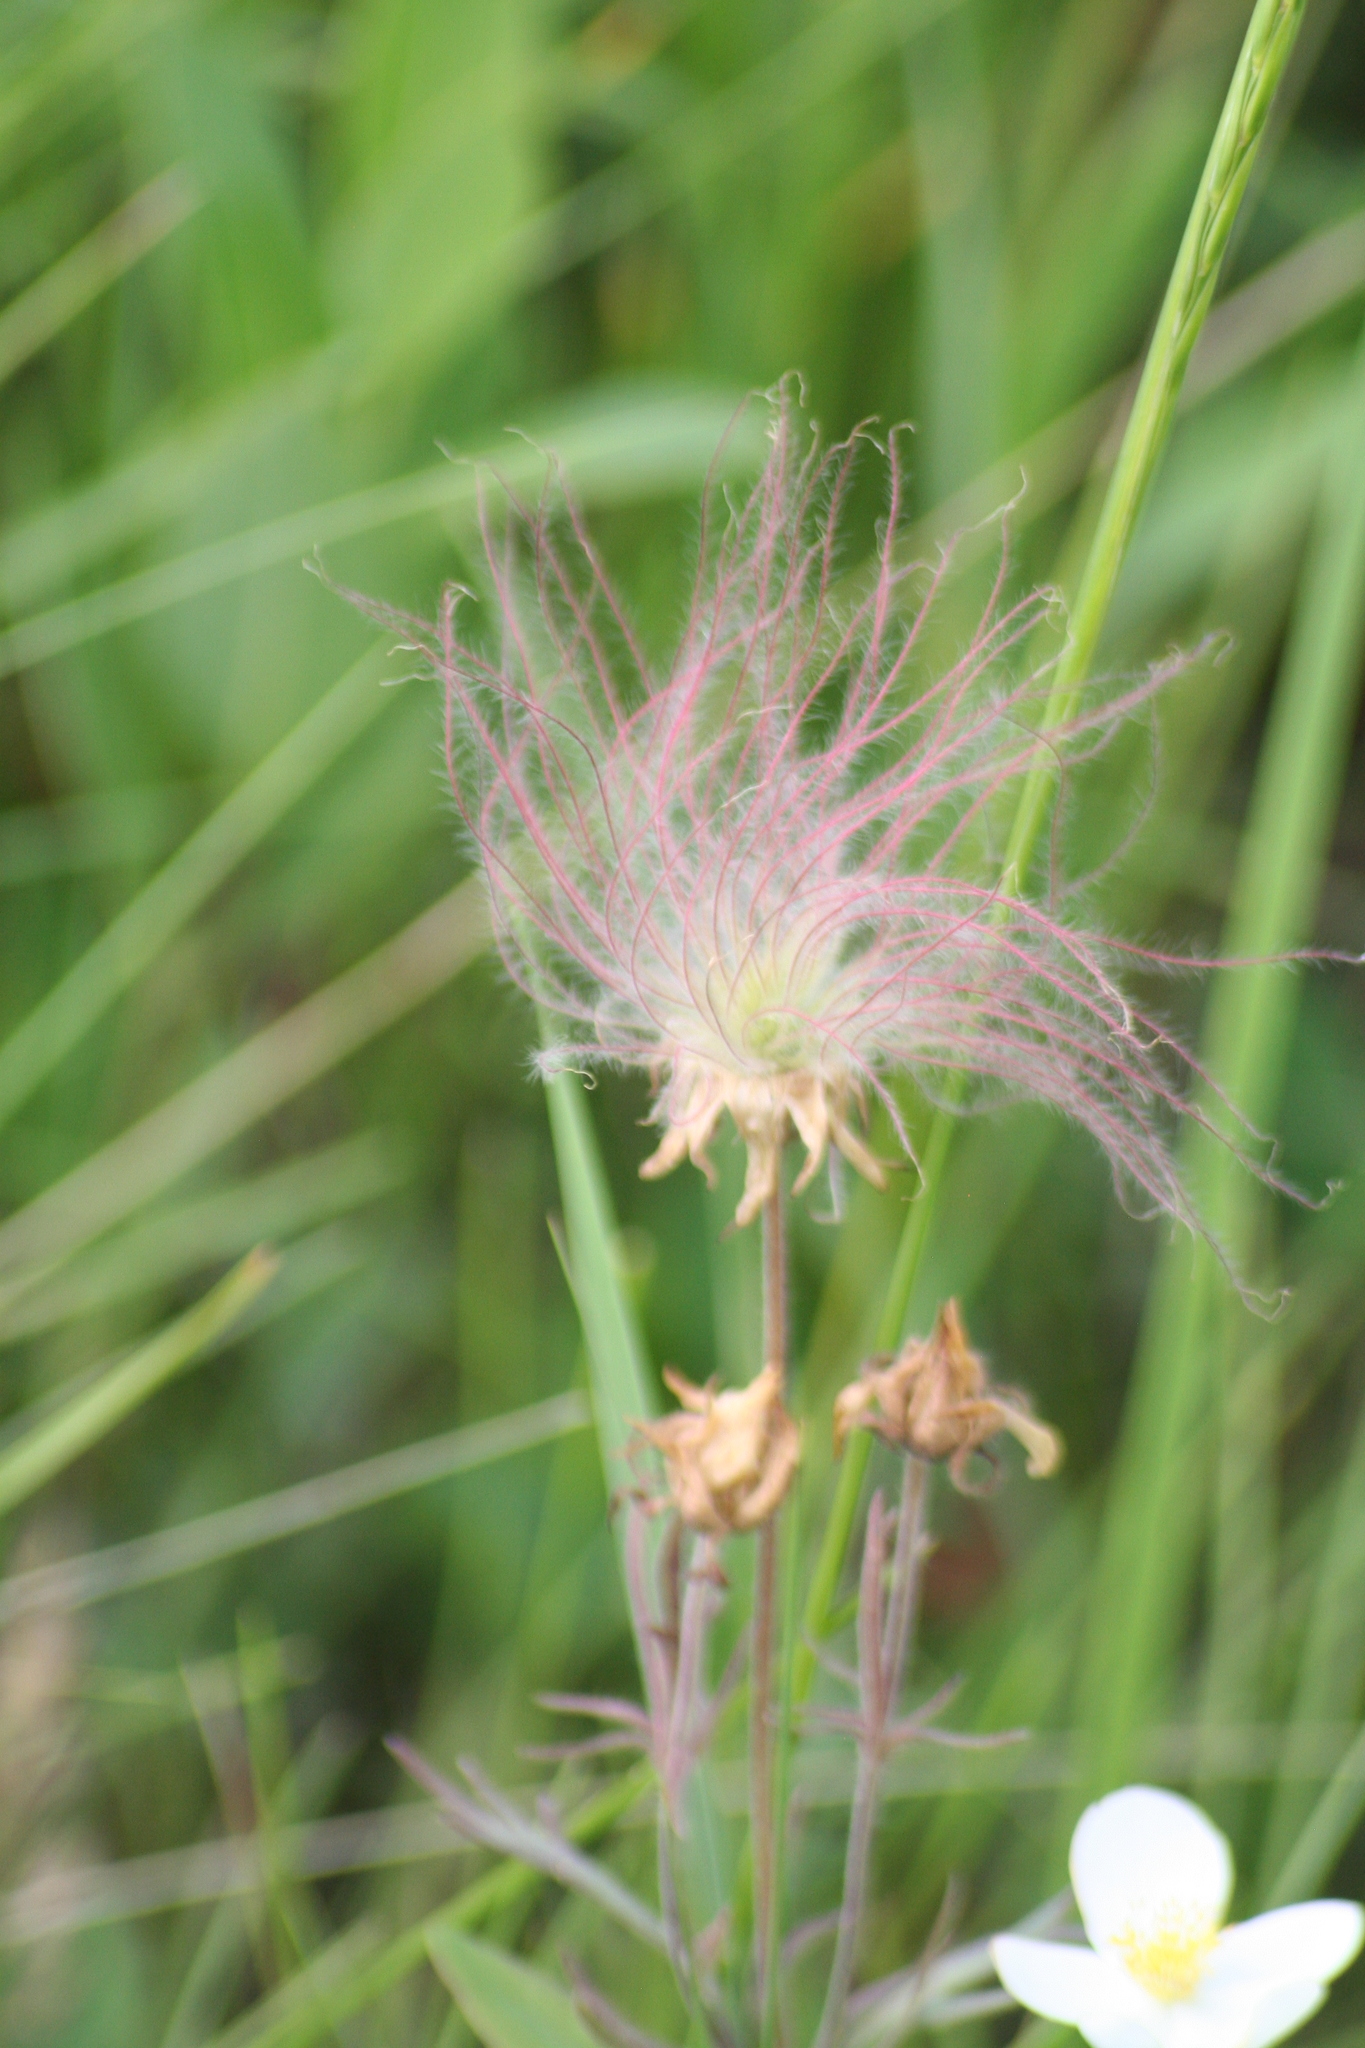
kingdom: Plantae
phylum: Tracheophyta
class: Magnoliopsida
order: Rosales
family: Rosaceae
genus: Geum
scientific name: Geum triflorum
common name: Old man's whiskers
